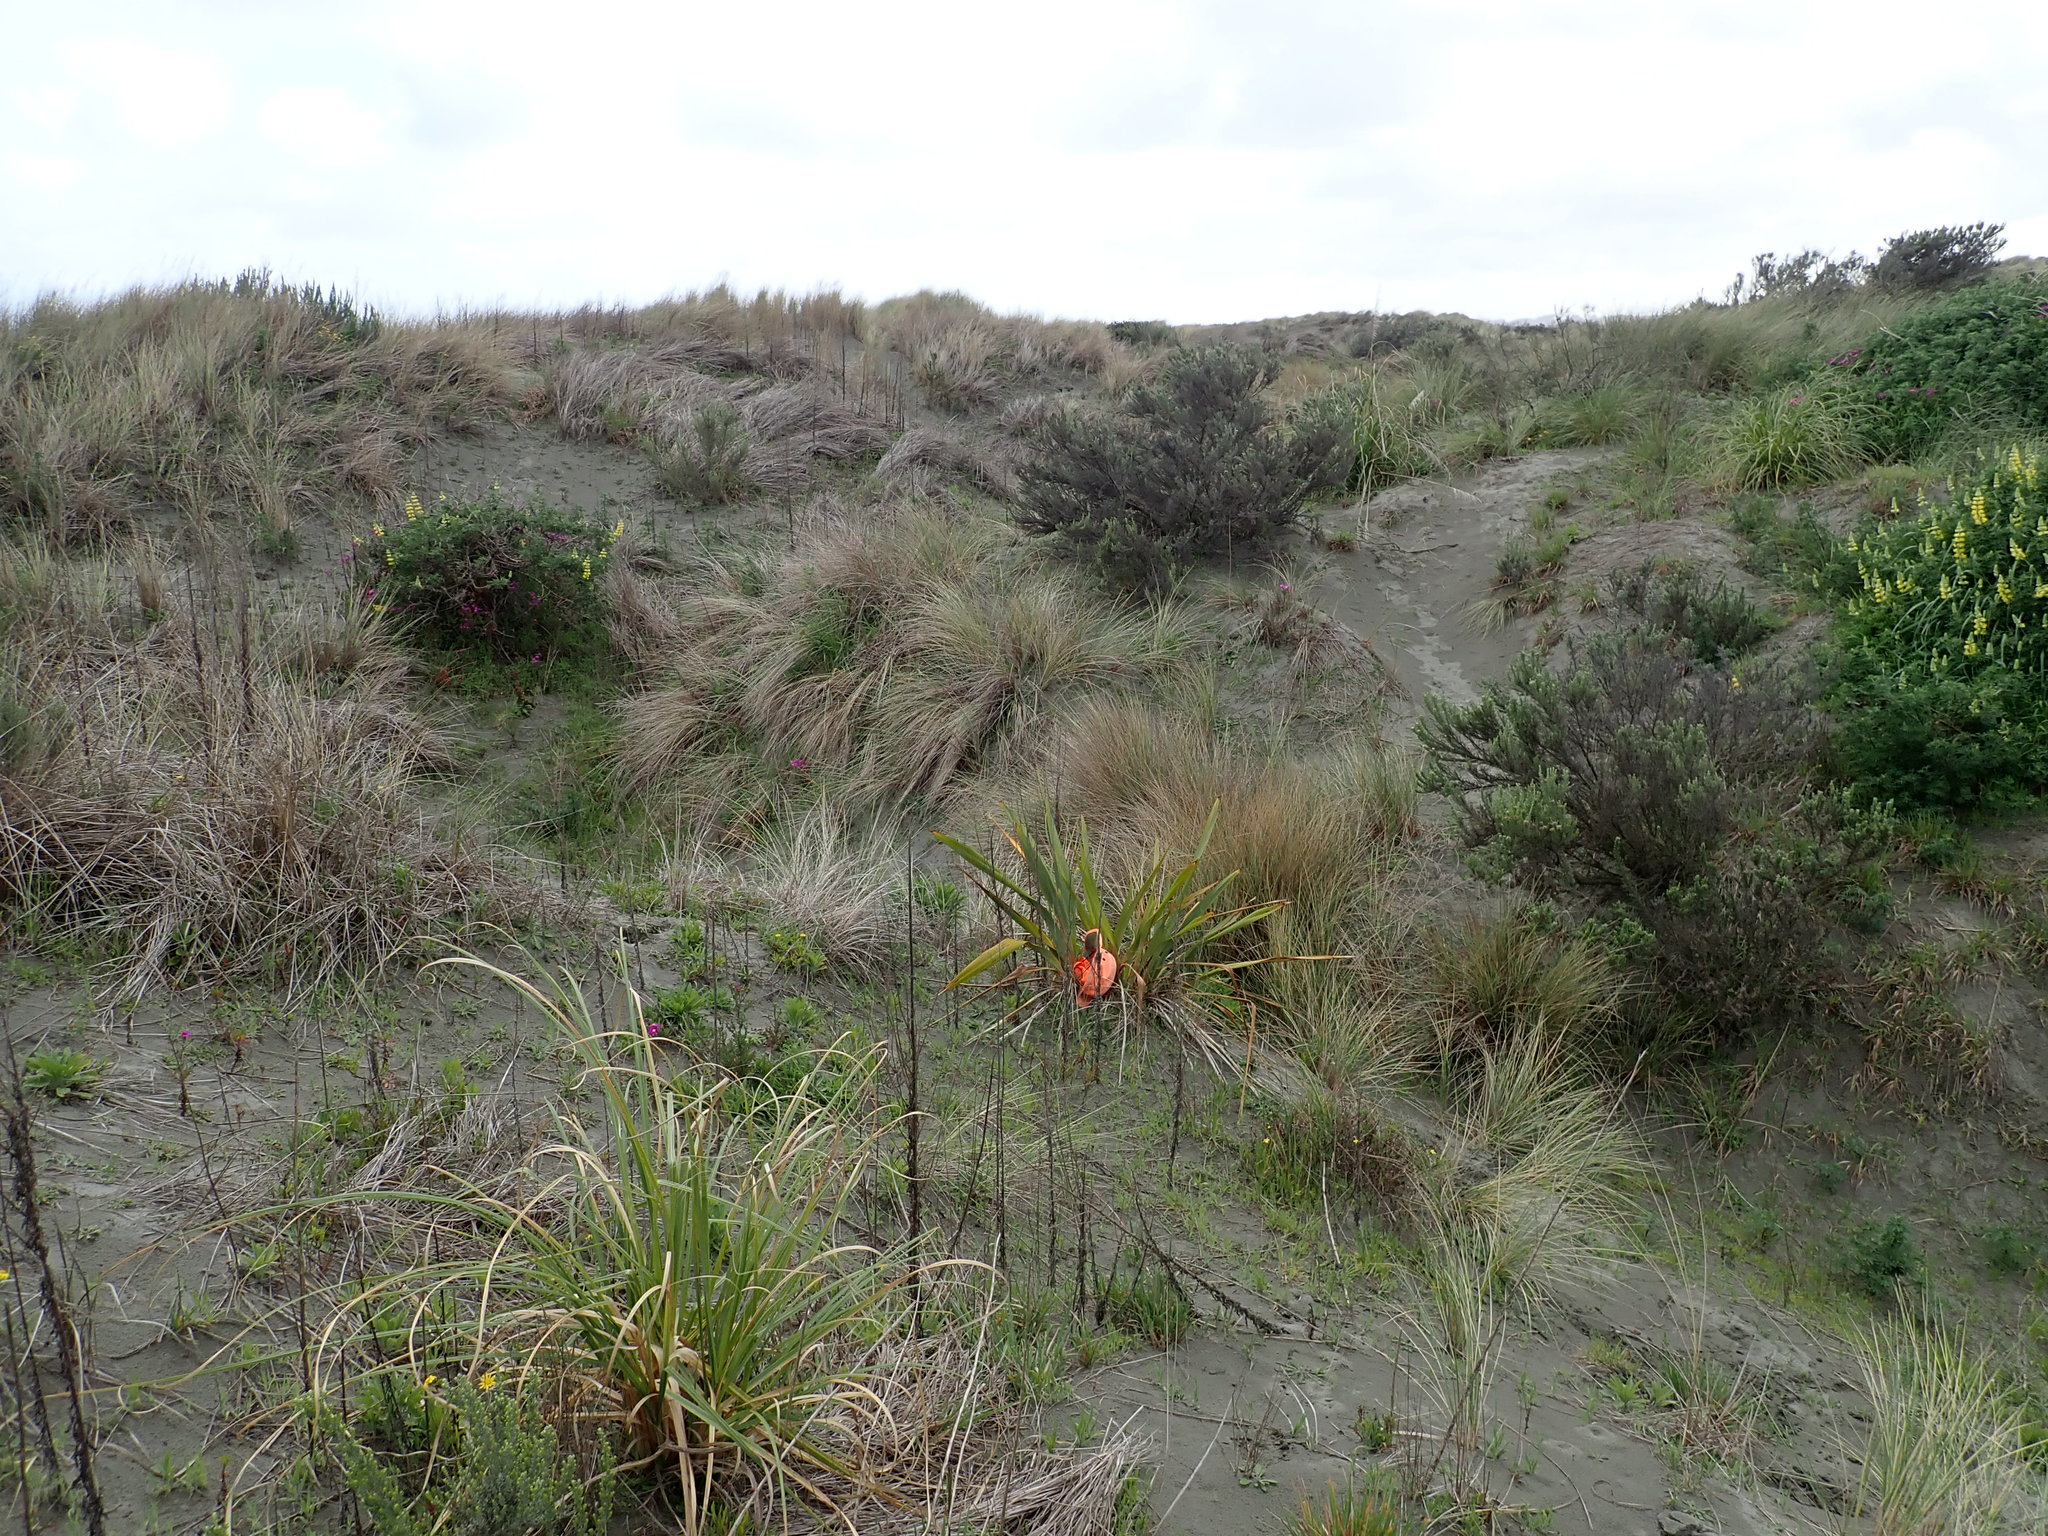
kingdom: Plantae
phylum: Tracheophyta
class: Liliopsida
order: Asparagales
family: Asphodelaceae
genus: Phormium
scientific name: Phormium tenax
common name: New zealand flax
